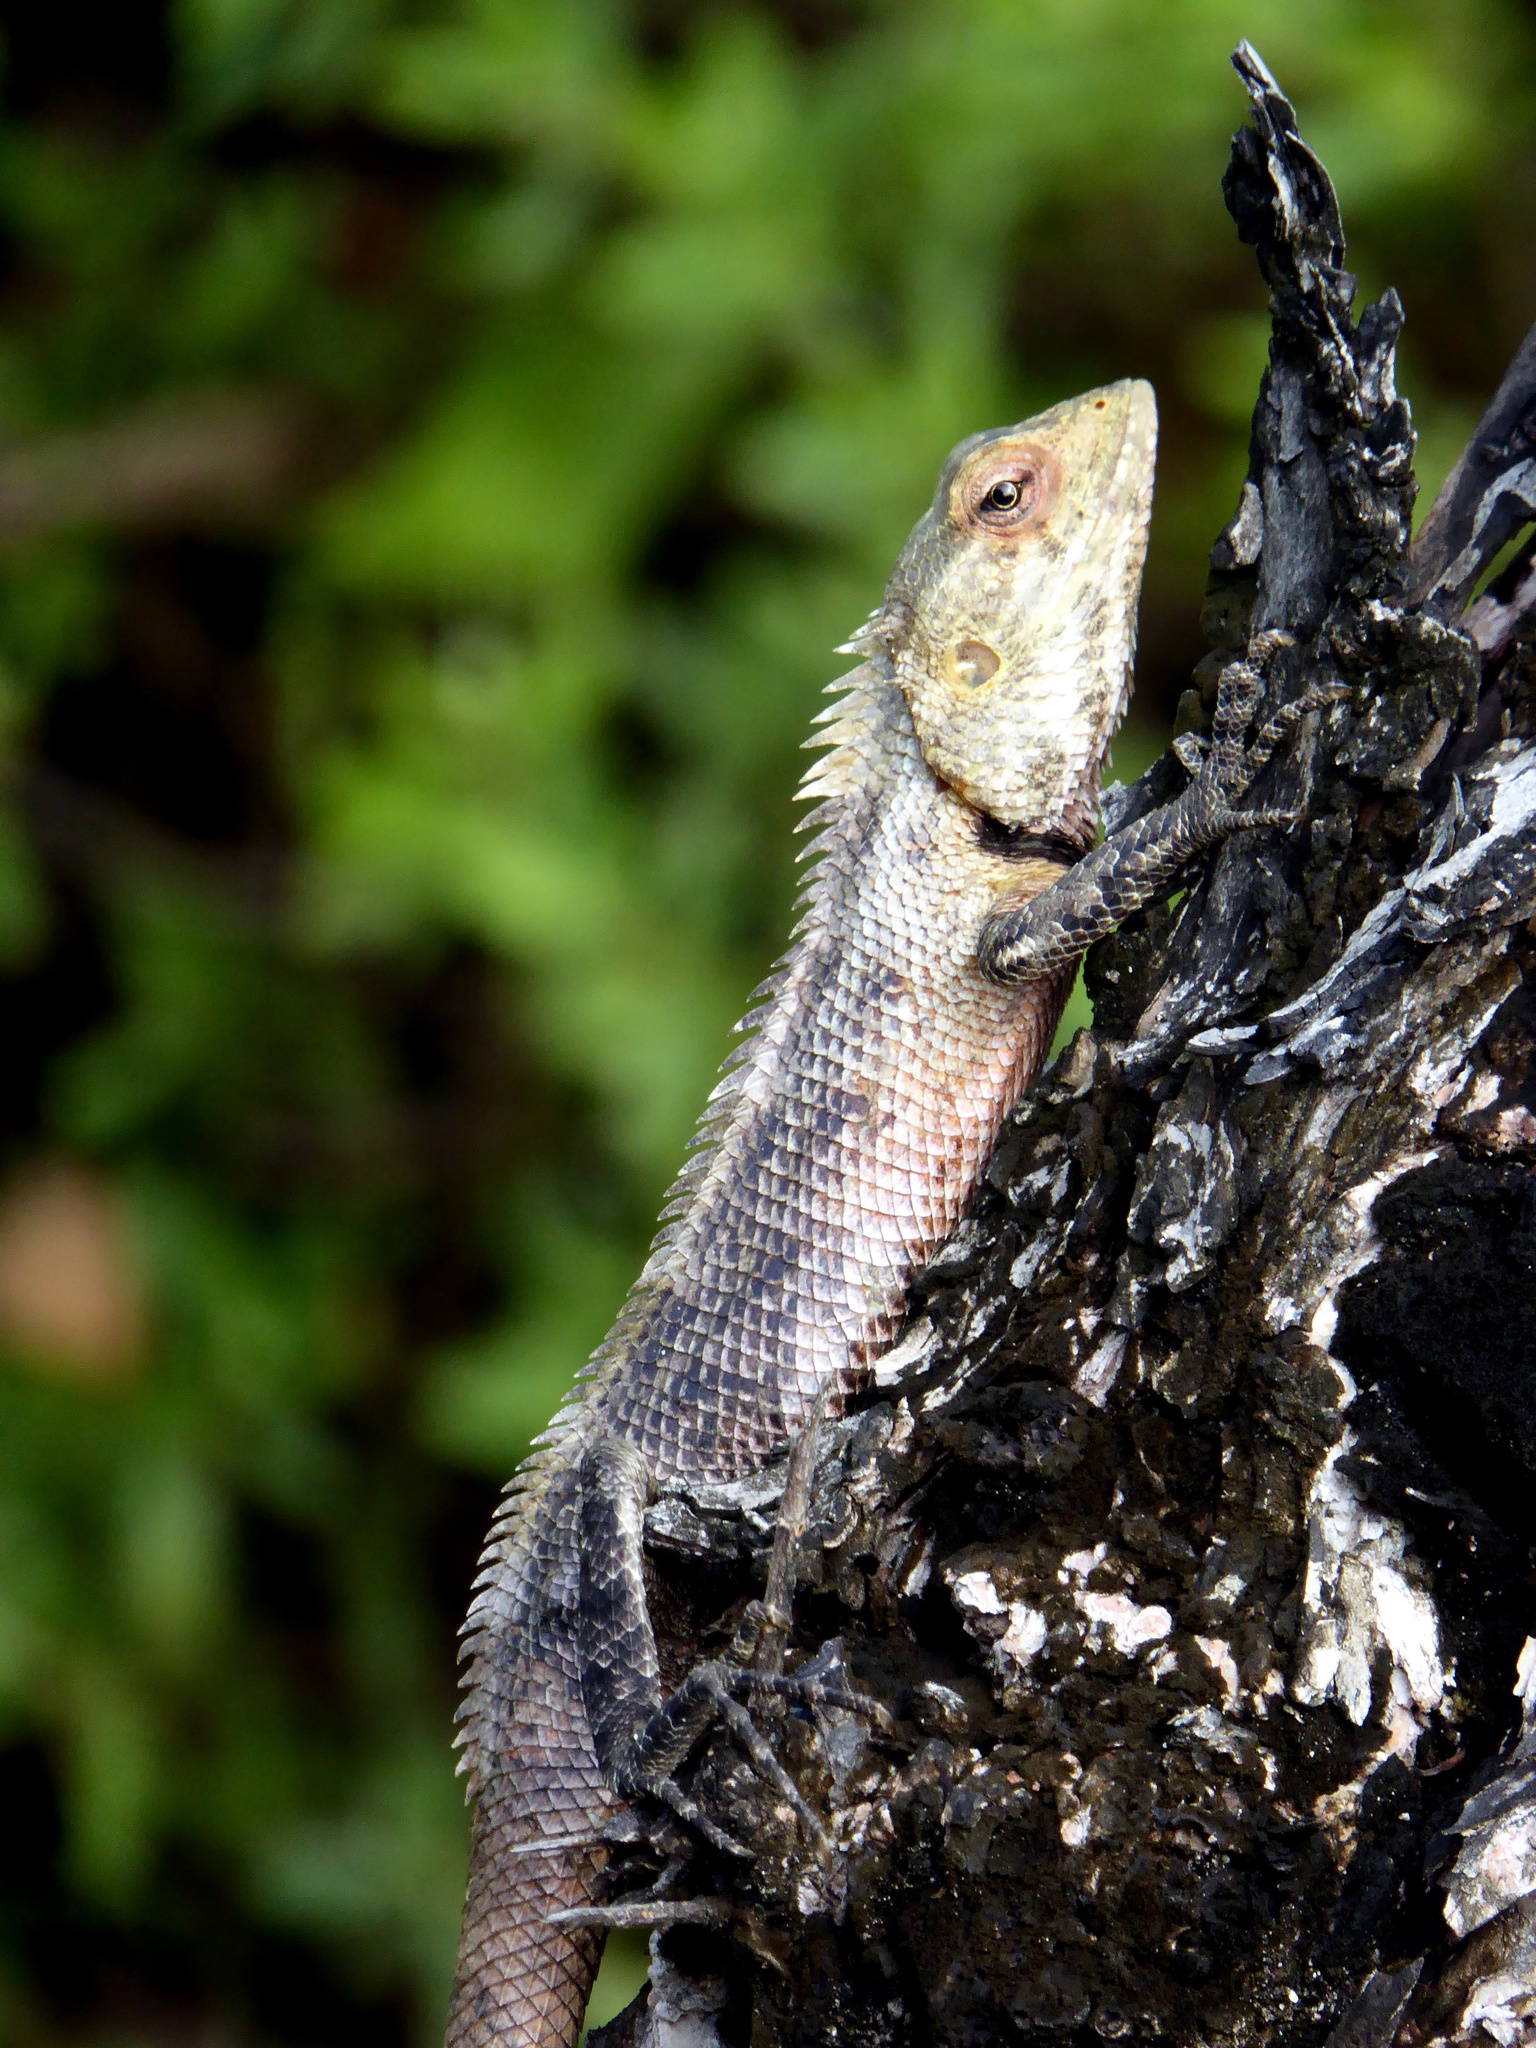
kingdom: Animalia
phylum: Chordata
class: Squamata
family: Agamidae
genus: Calotes
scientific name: Calotes versicolor
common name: Oriental garden lizard
